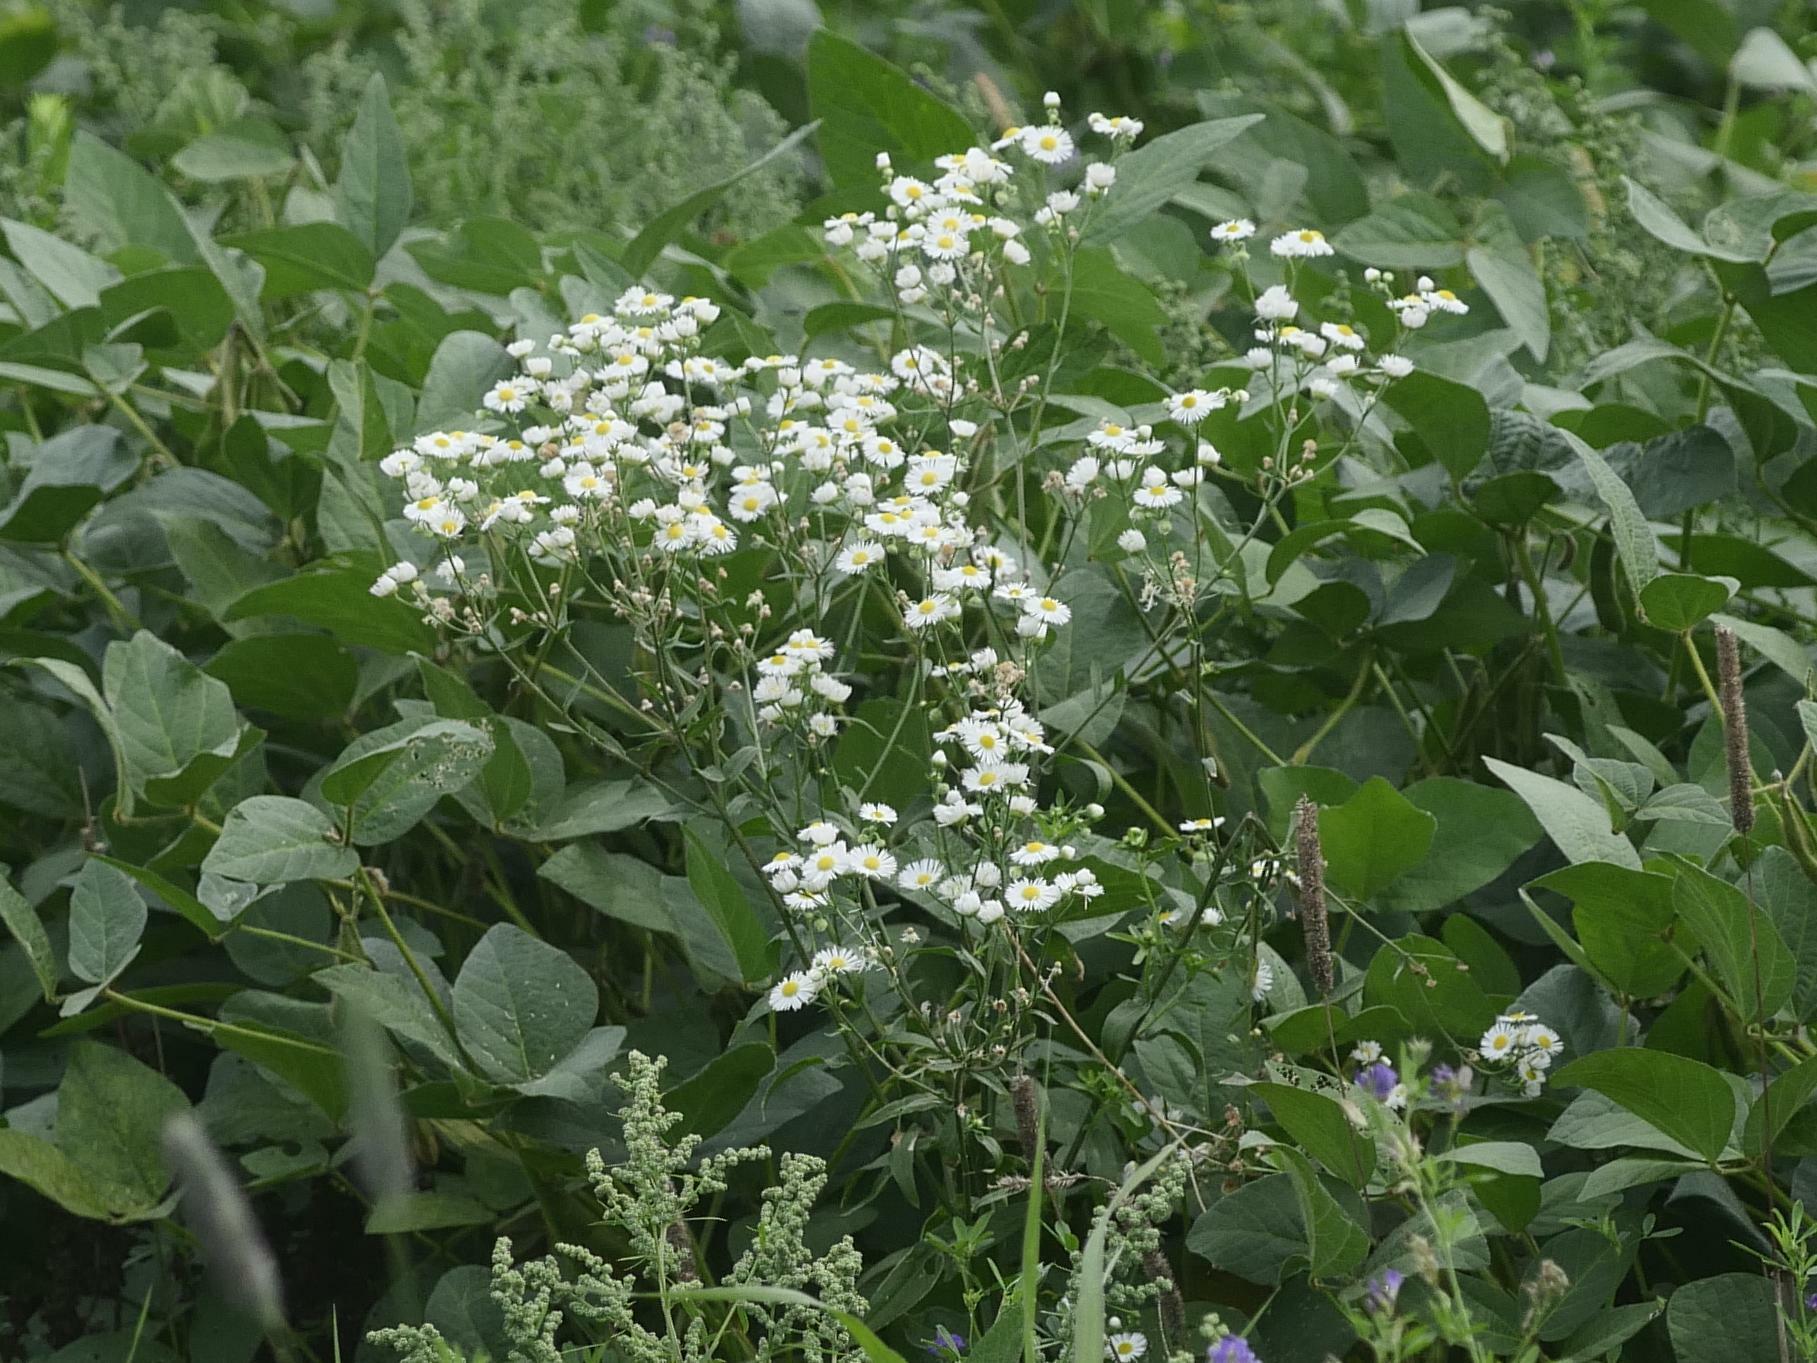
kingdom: Plantae
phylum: Tracheophyta
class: Magnoliopsida
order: Asterales
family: Asteraceae
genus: Erigeron
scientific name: Erigeron strigosus
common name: Common eastern fleabane
